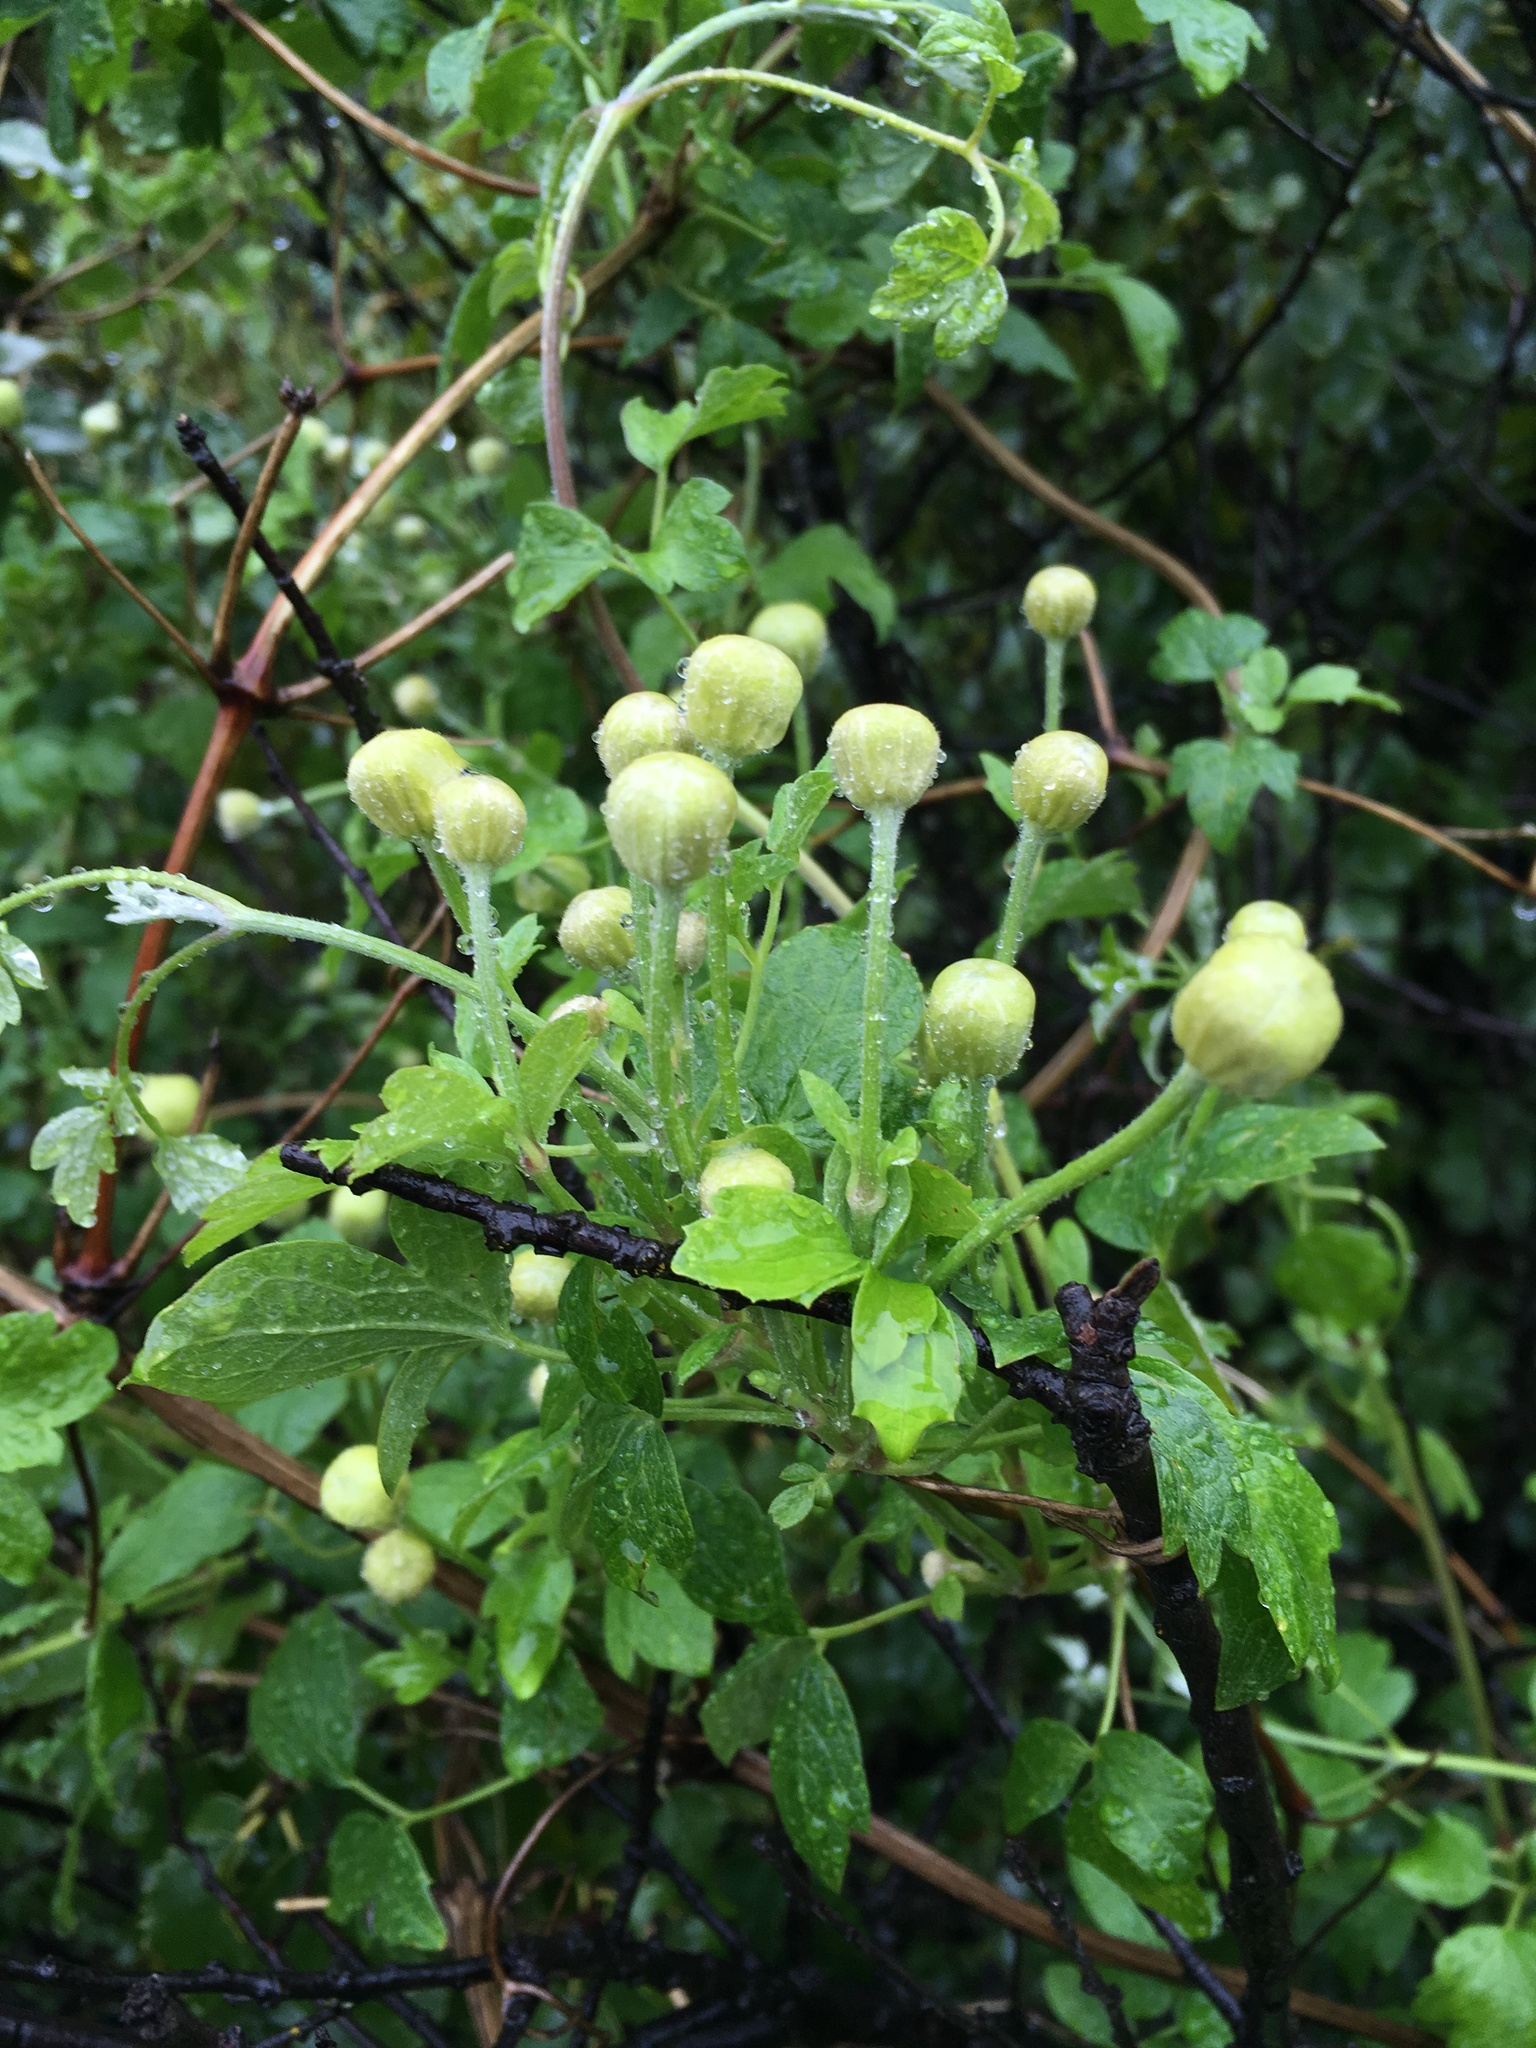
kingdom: Plantae
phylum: Tracheophyta
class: Magnoliopsida
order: Ranunculales
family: Ranunculaceae
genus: Clematis
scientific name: Clematis lasiantha
